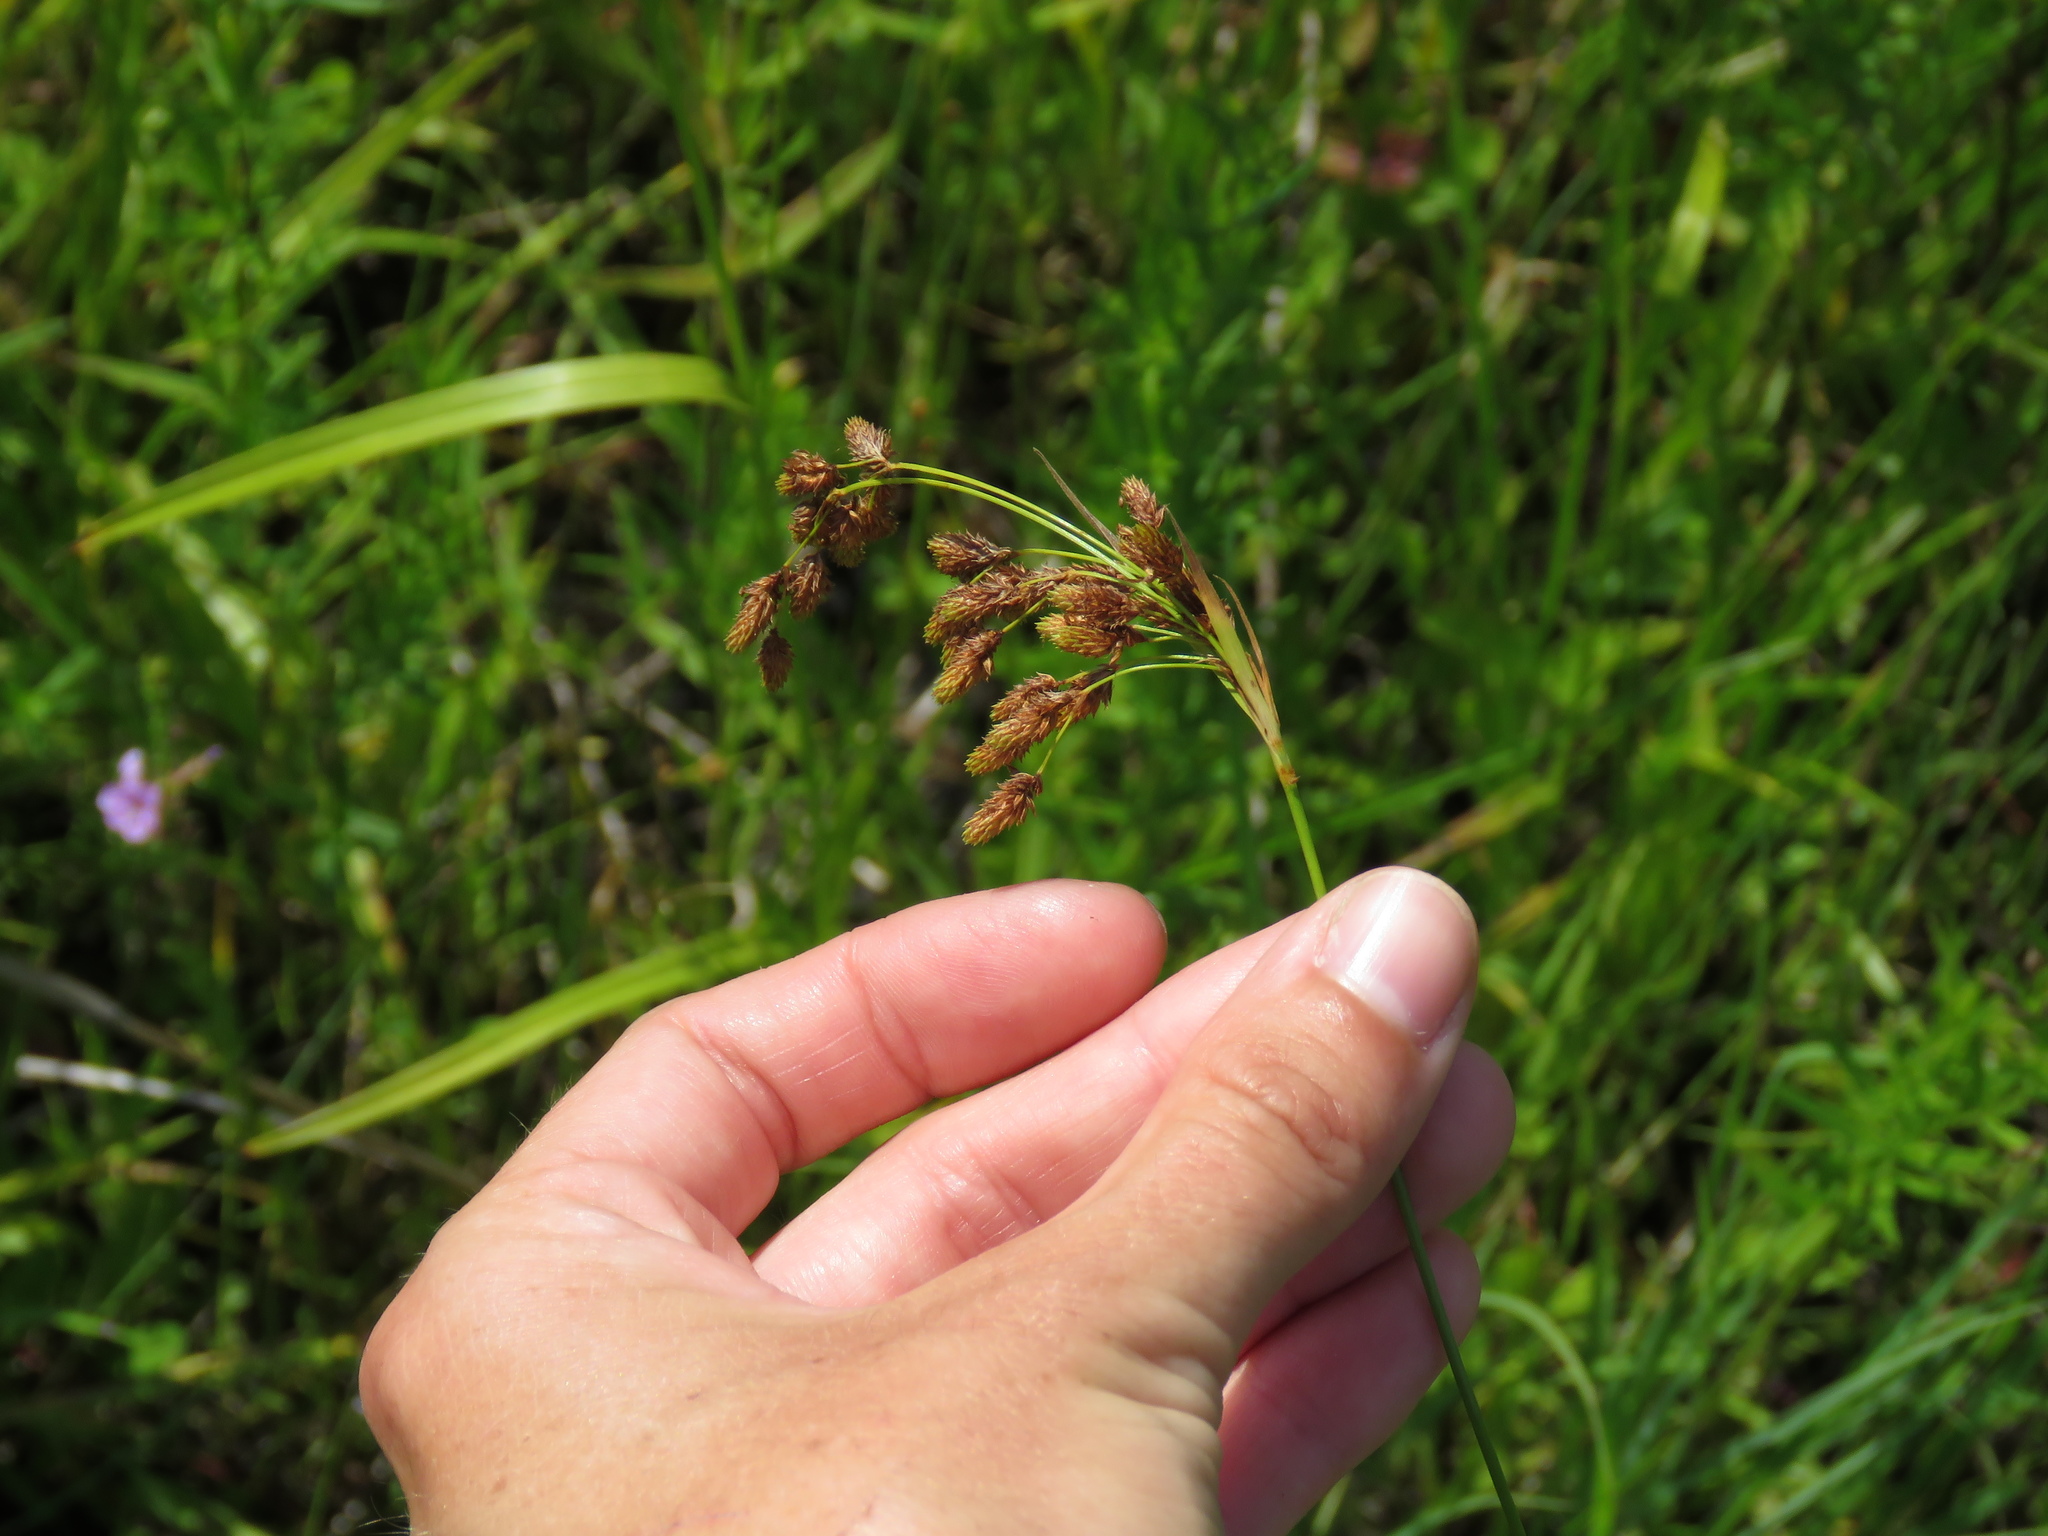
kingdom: Plantae
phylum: Tracheophyta
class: Liliopsida
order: Poales
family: Cyperaceae
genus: Scirpus
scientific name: Scirpus pendulus
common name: Nodding bulrush
